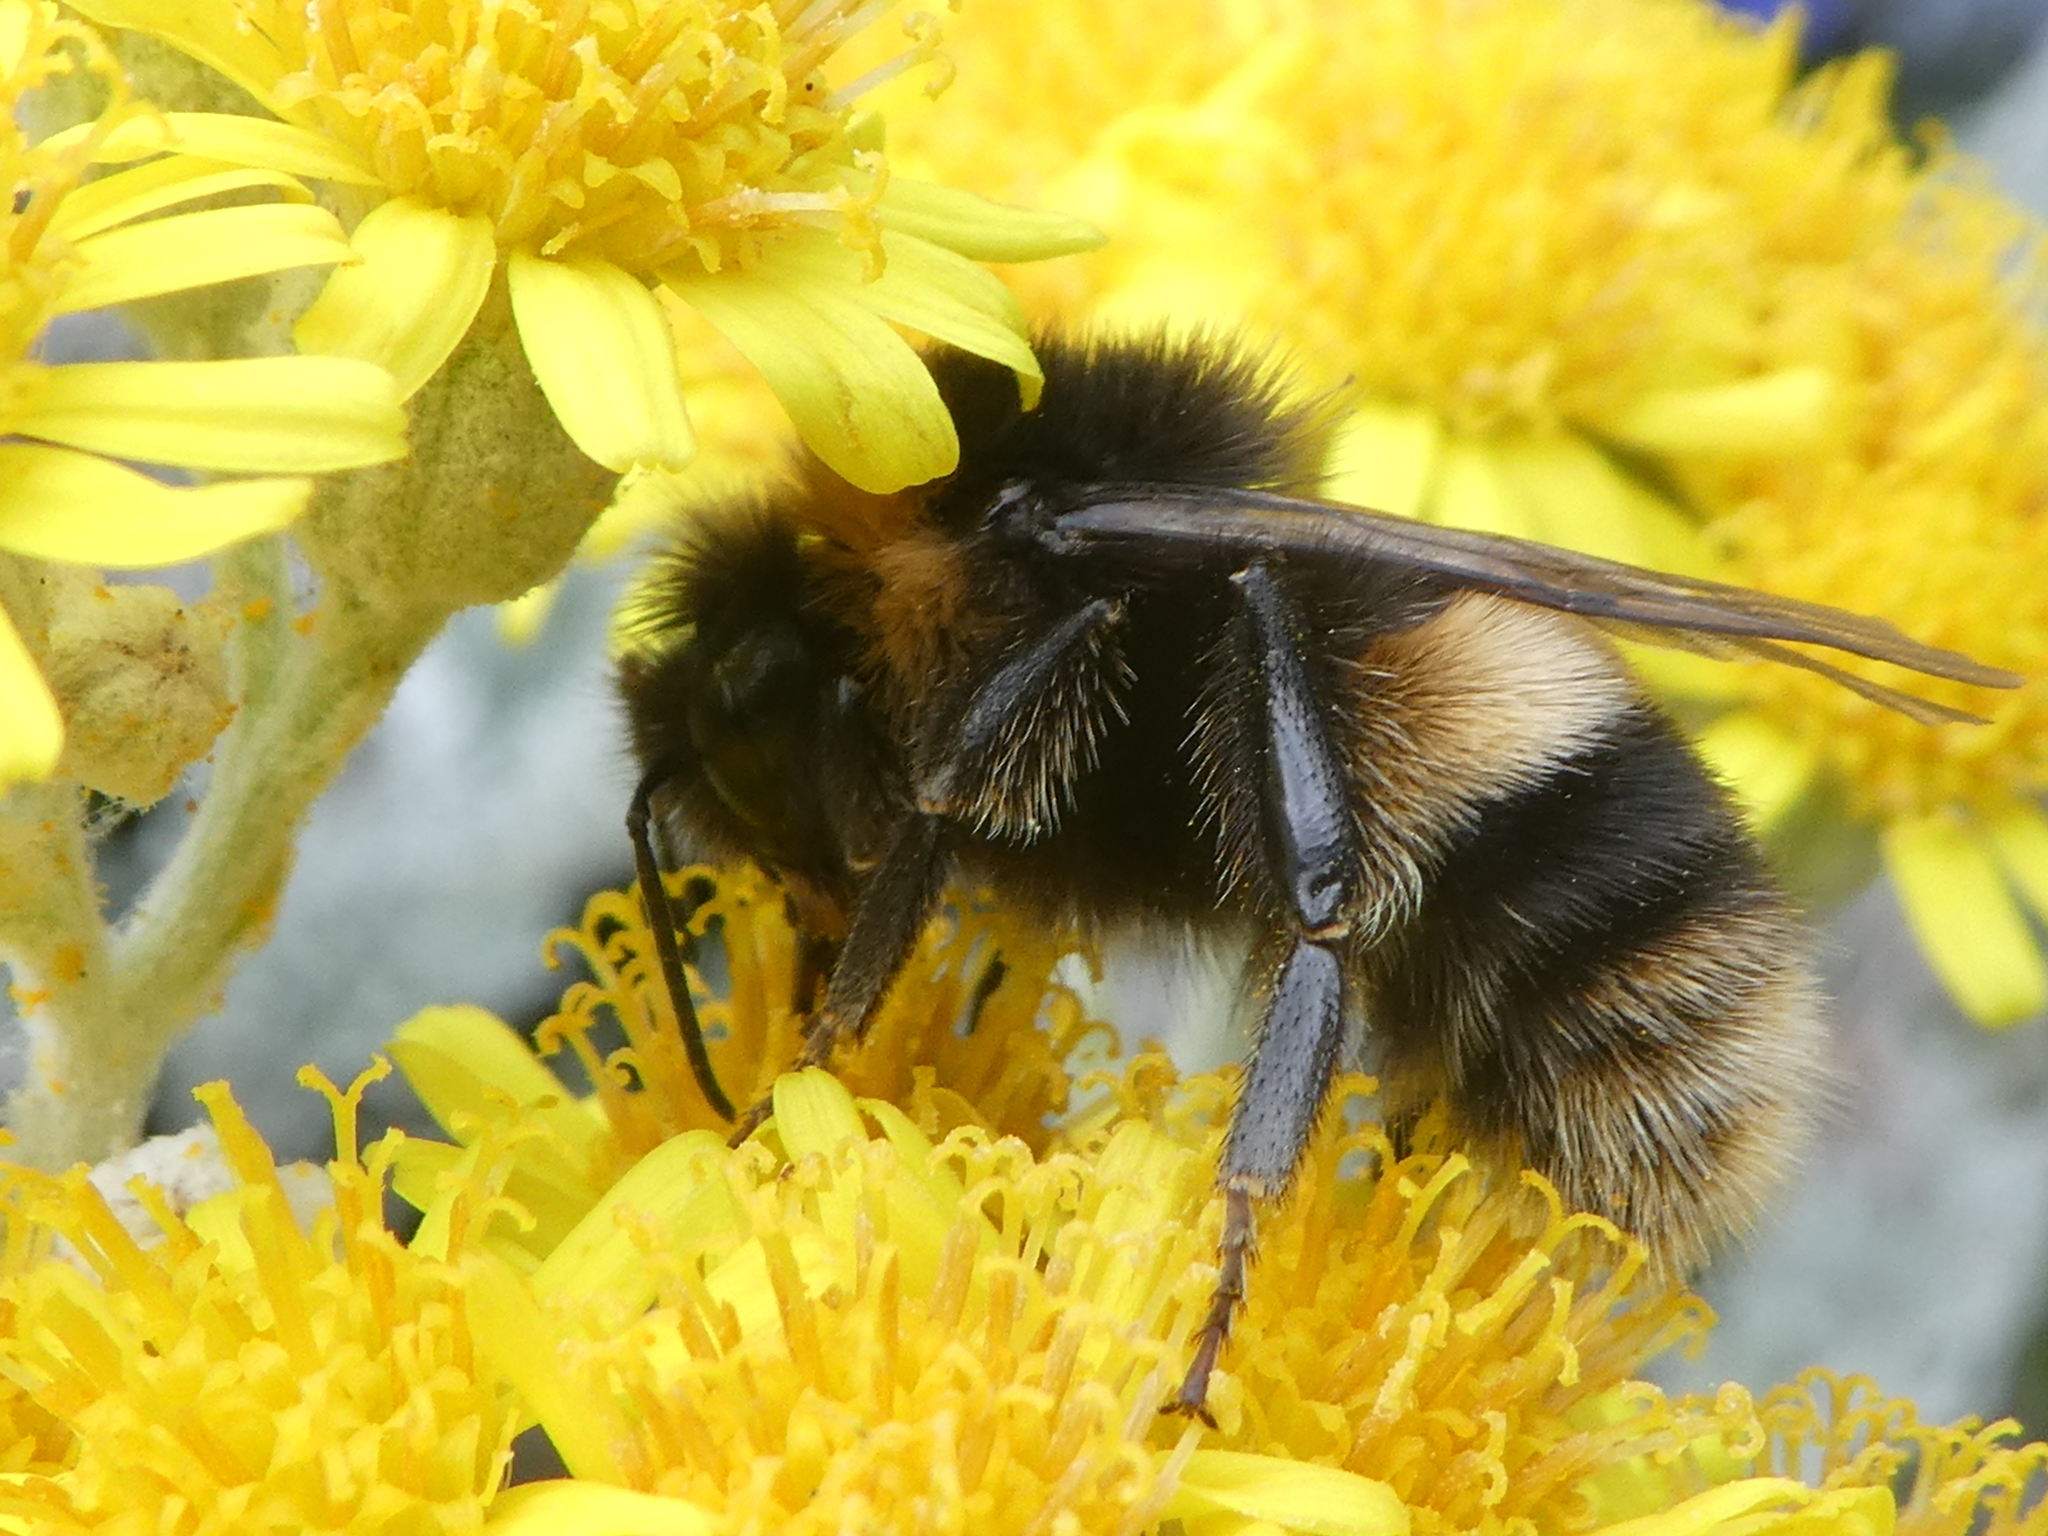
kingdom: Animalia
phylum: Arthropoda
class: Insecta
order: Hymenoptera
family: Apidae
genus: Bombus
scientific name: Bombus terrestris
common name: Buff-tailed bumblebee
